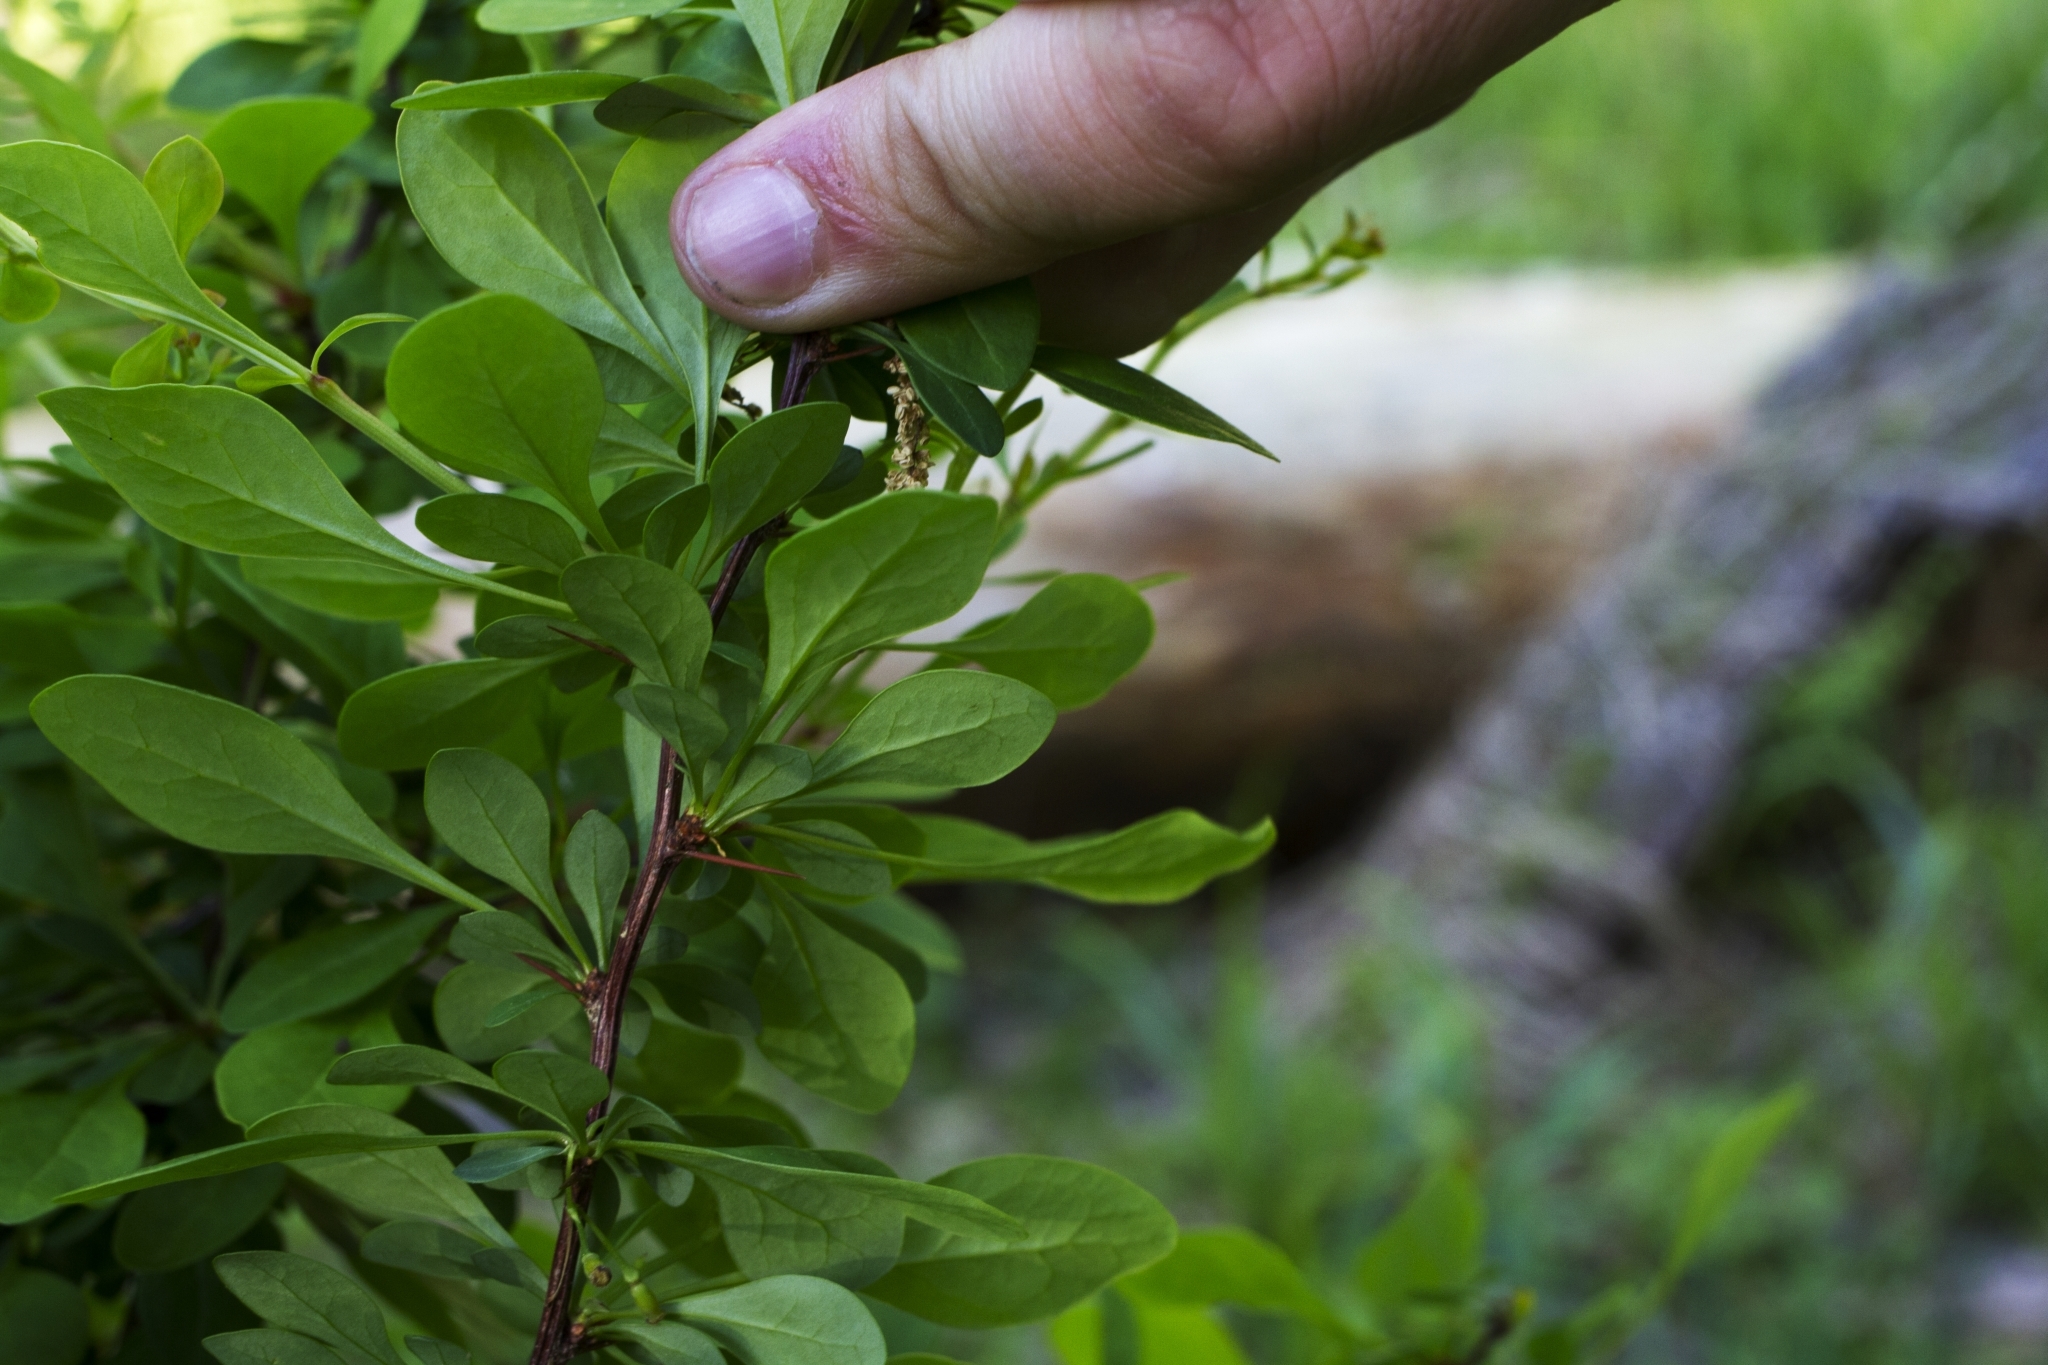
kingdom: Plantae
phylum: Tracheophyta
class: Magnoliopsida
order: Ranunculales
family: Berberidaceae
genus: Berberis
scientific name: Berberis thunbergii
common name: Japanese barberry
